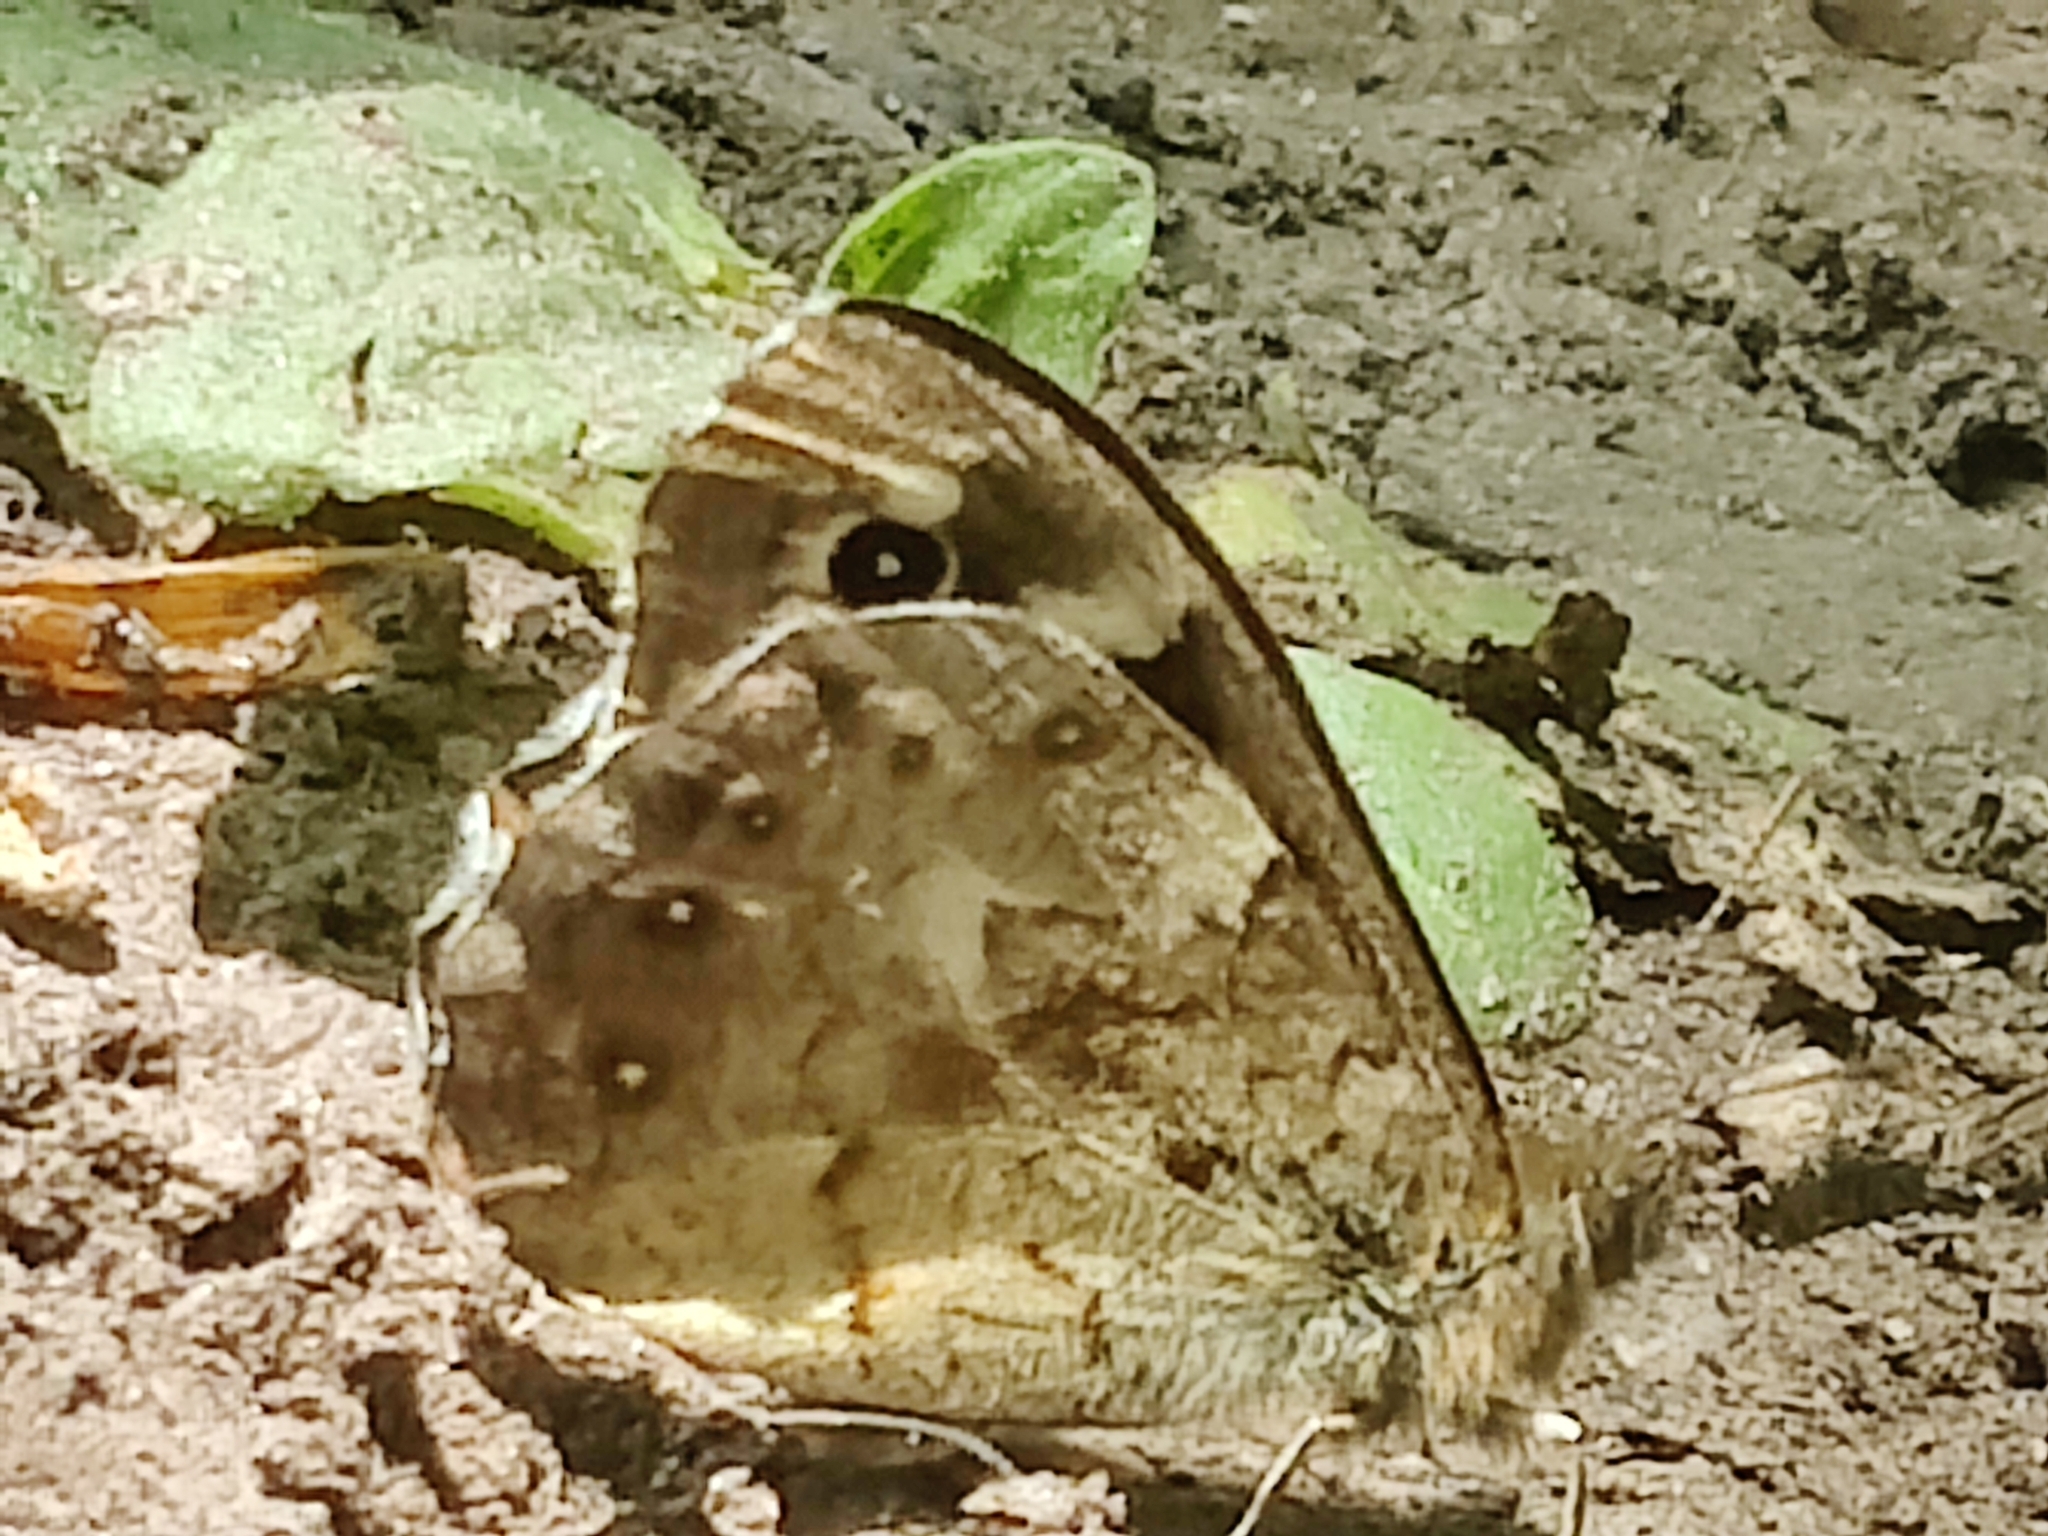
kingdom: Animalia
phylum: Arthropoda
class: Insecta
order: Lepidoptera
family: Nymphalidae
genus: Pararge
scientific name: Pararge aegeria
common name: Speckled wood
